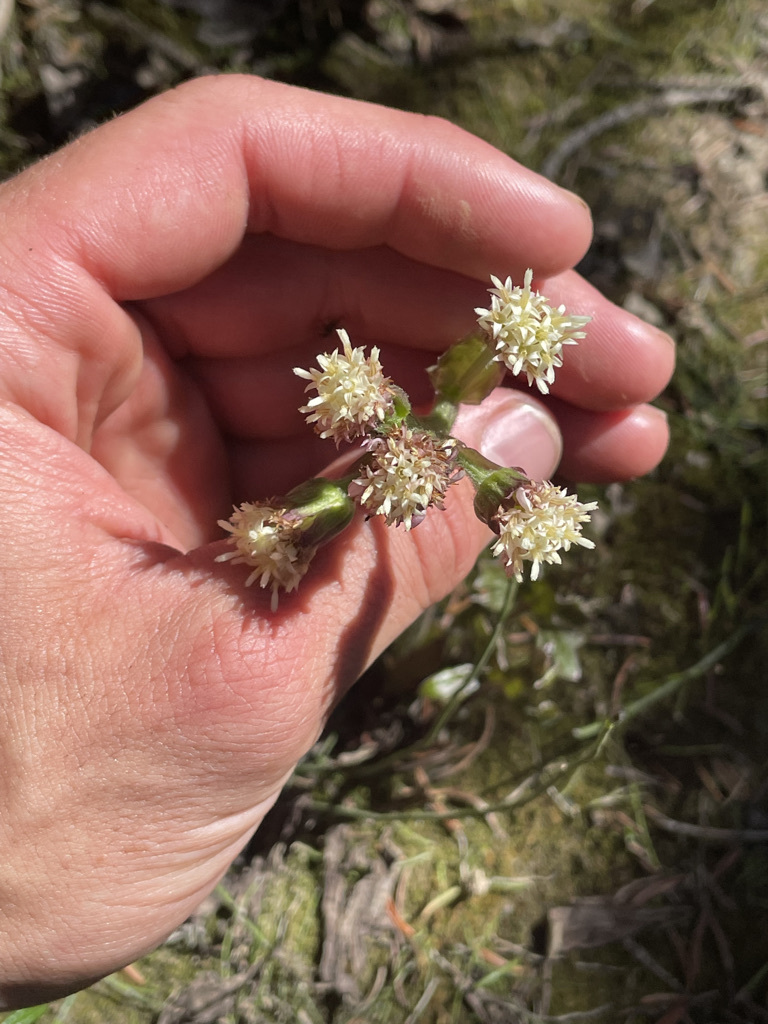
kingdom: Plantae
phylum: Tracheophyta
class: Magnoliopsida
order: Asterales
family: Asteraceae
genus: Petasites
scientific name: Petasites frigidus
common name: Arctic butterbur
